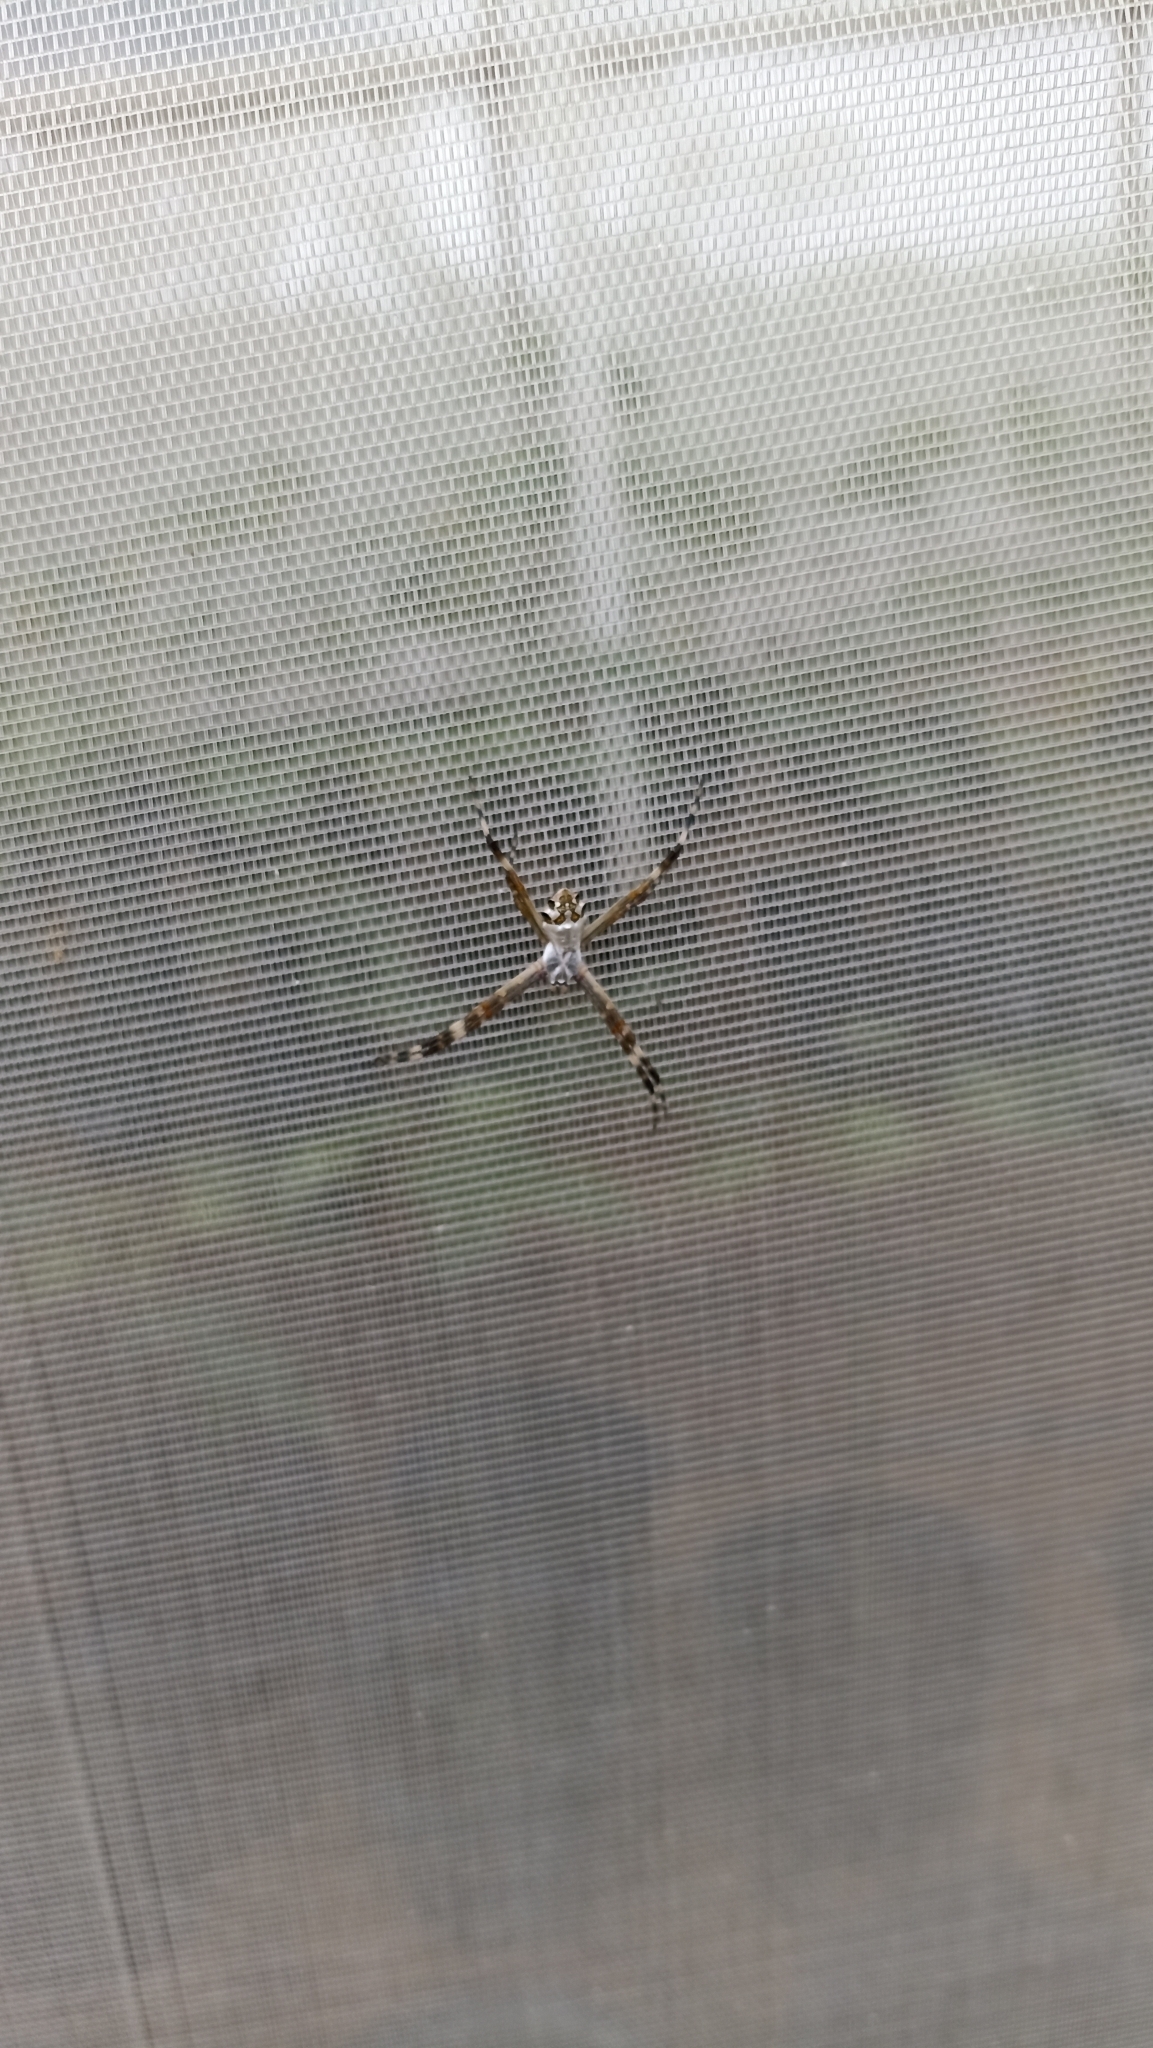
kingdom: Animalia
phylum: Arthropoda
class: Arachnida
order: Araneae
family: Araneidae
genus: Argiope
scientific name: Argiope argentata
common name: Orb weavers
